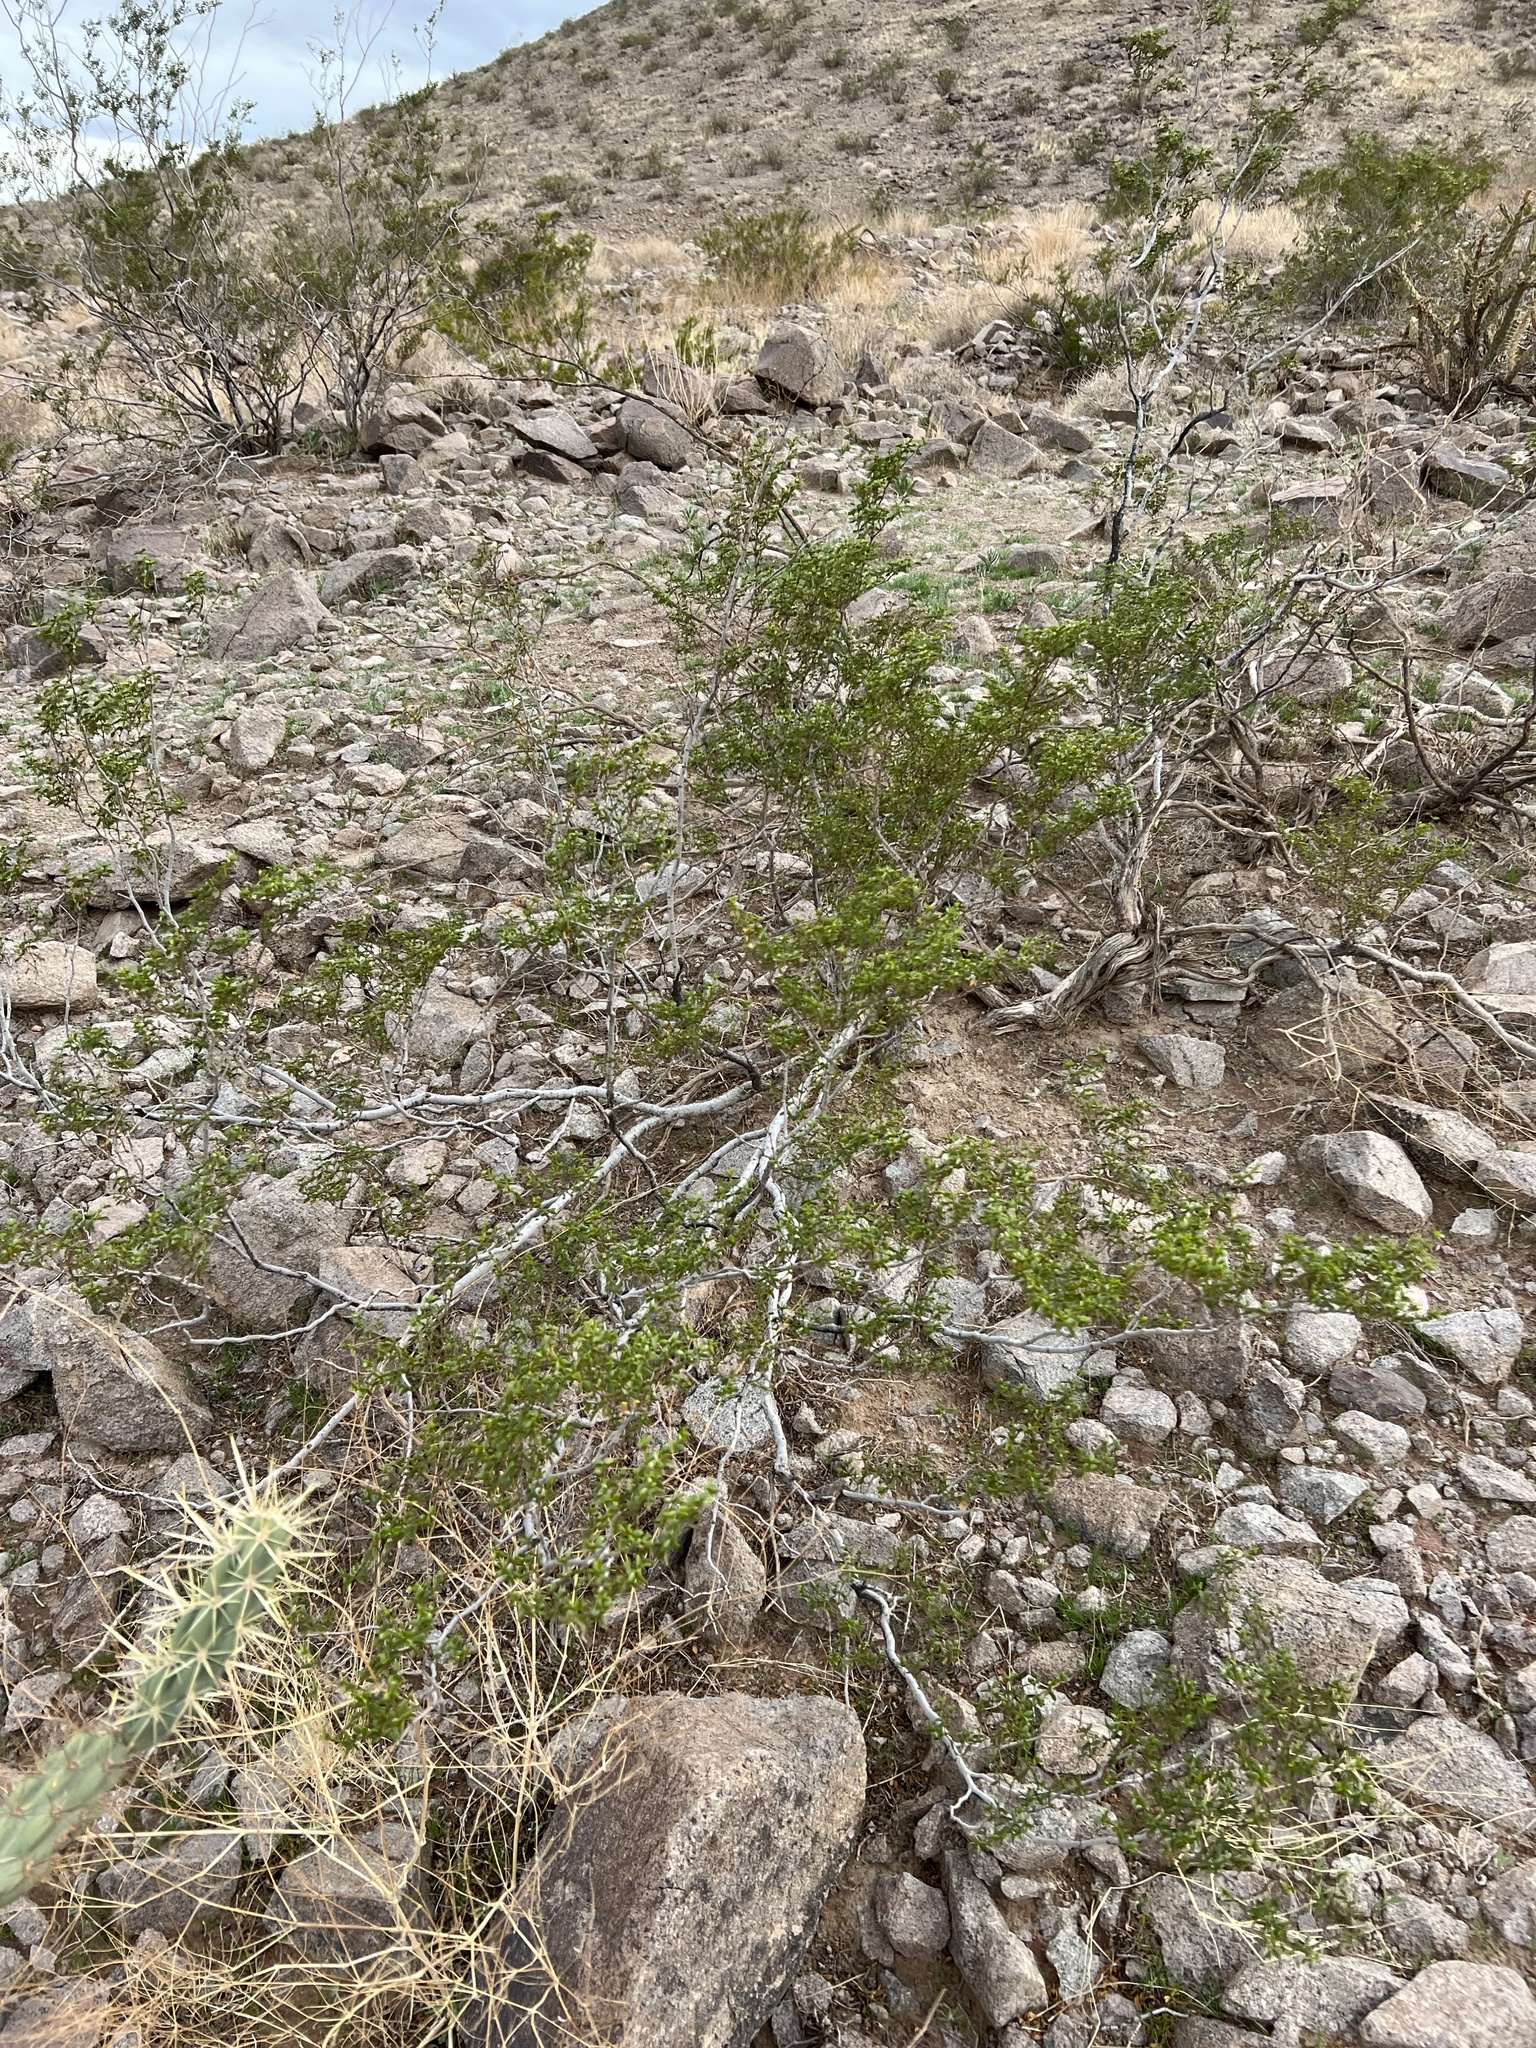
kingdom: Plantae
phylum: Tracheophyta
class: Magnoliopsida
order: Zygophyllales
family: Zygophyllaceae
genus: Larrea
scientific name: Larrea tridentata
